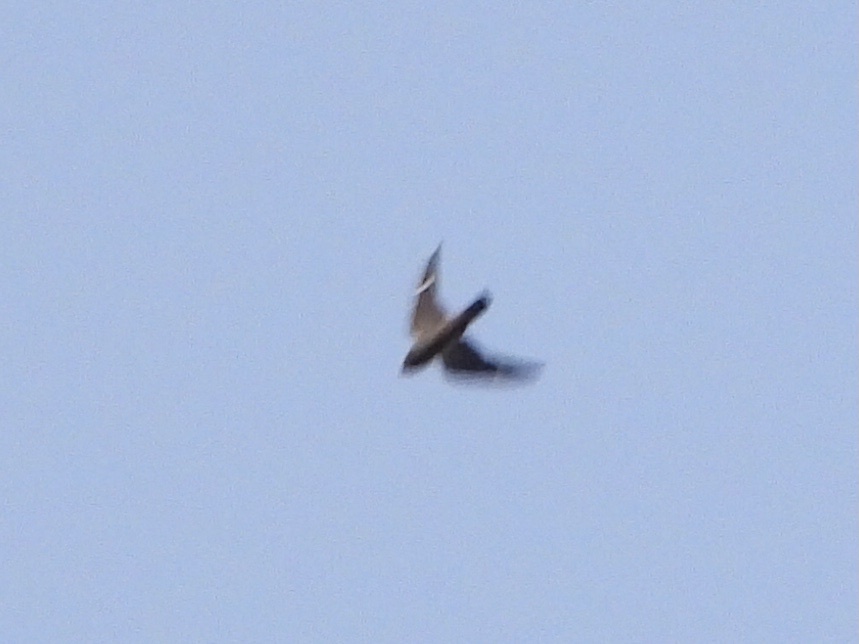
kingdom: Animalia
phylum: Chordata
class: Aves
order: Caprimulgiformes
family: Caprimulgidae
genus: Chordeiles
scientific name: Chordeiles minor
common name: Common nighthawk
